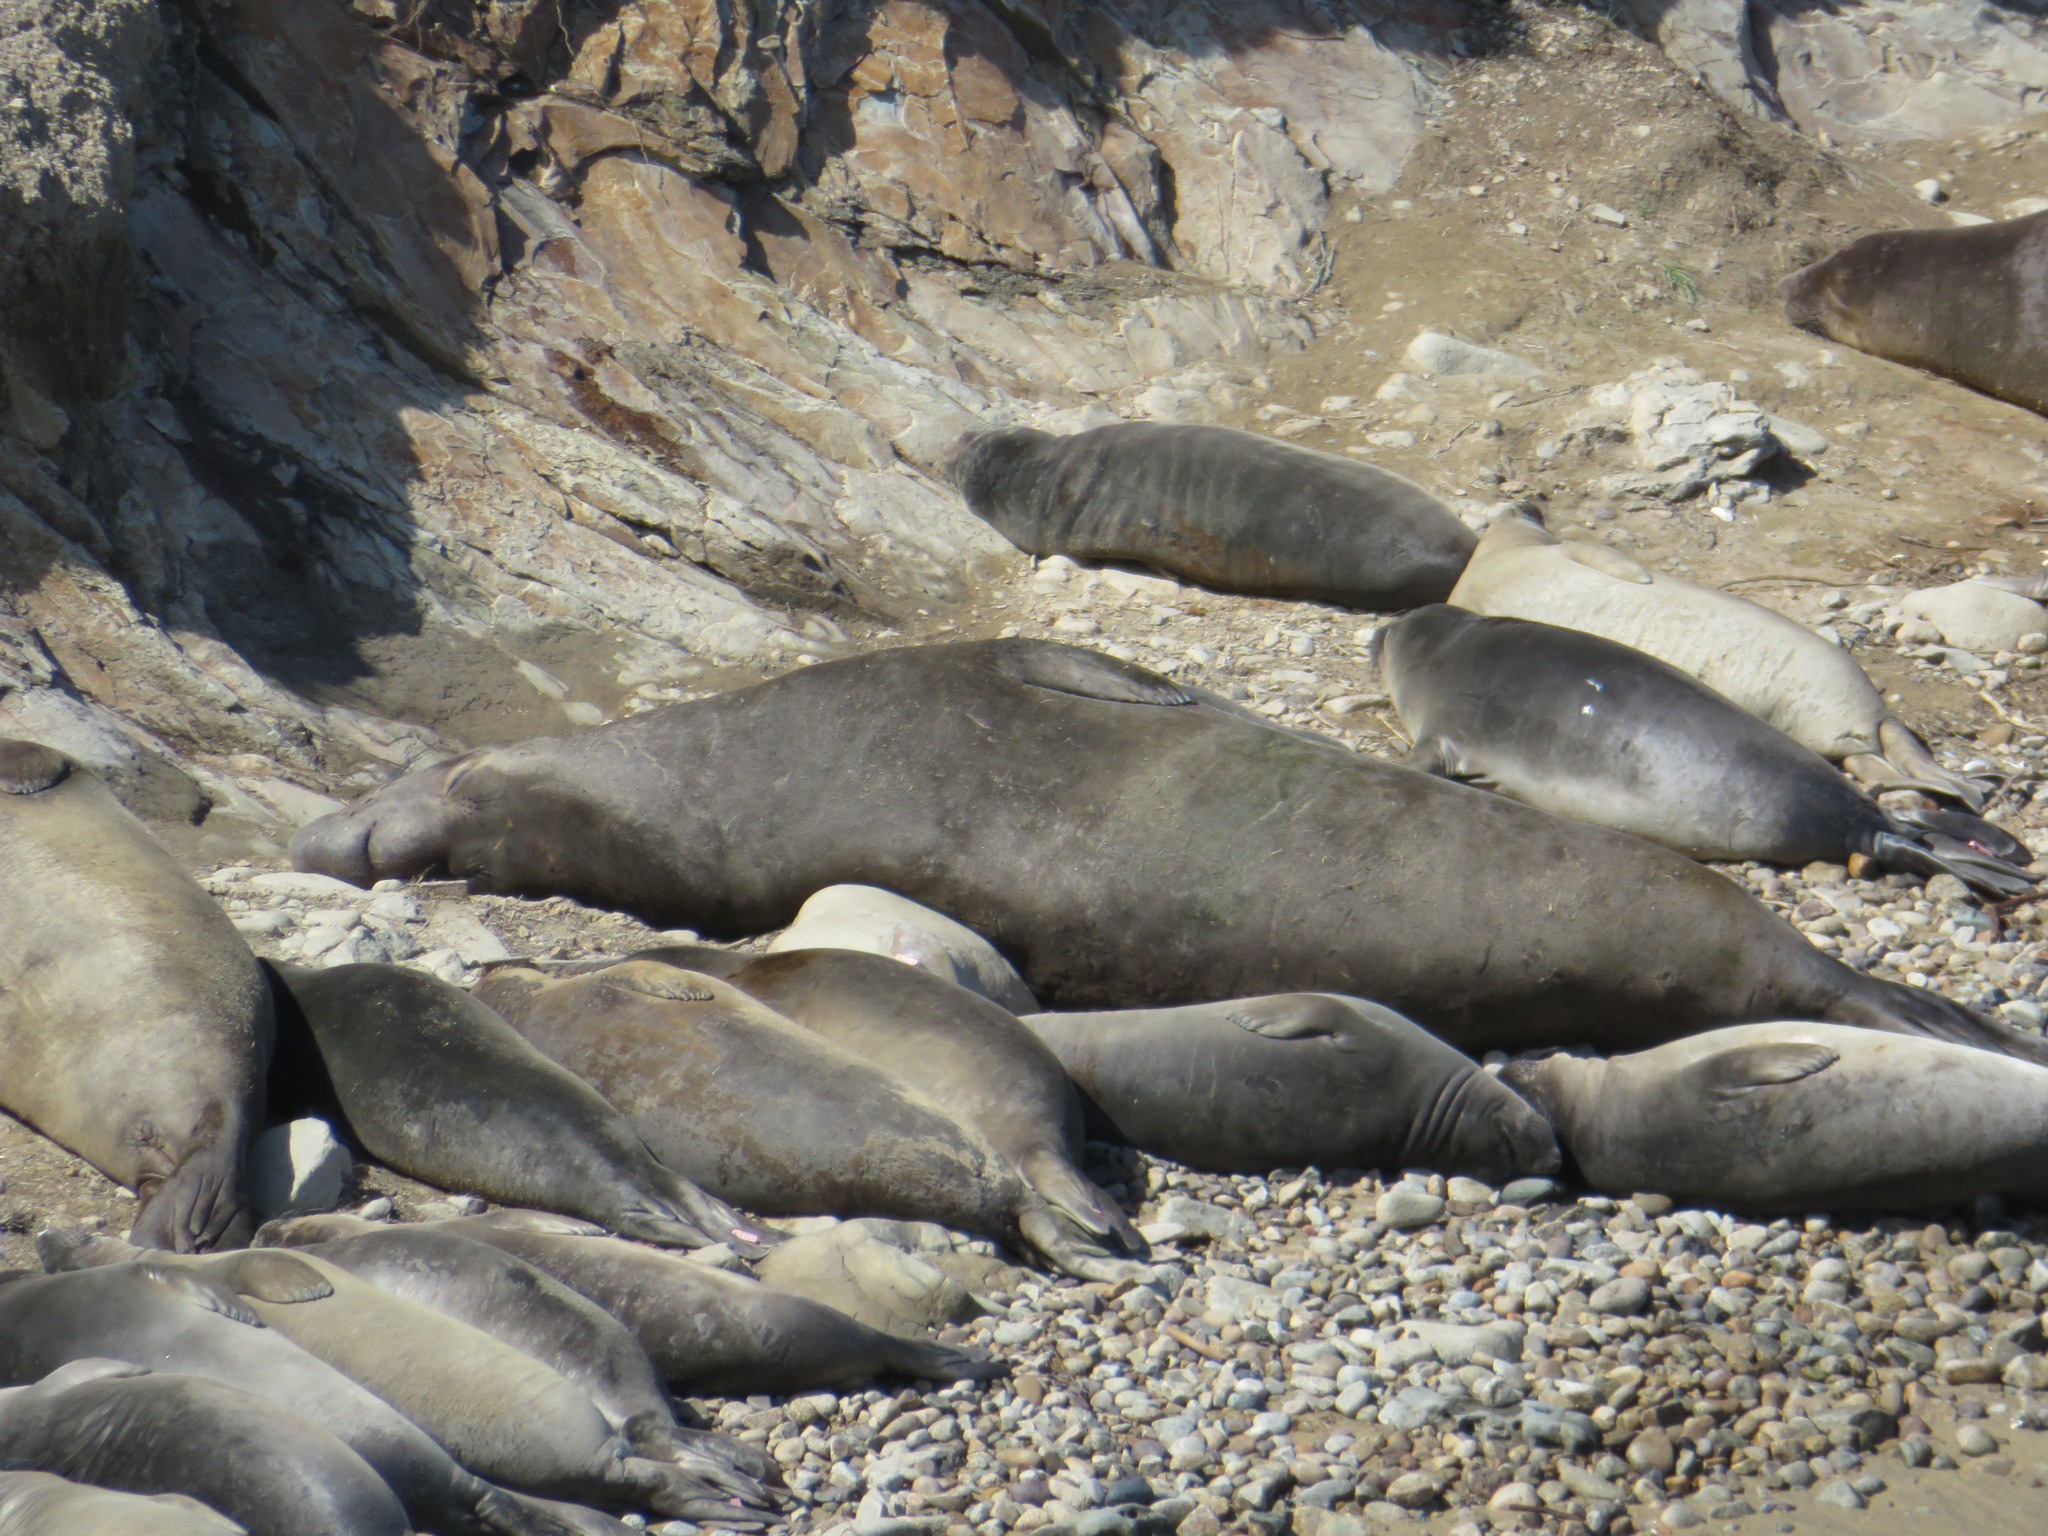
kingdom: Animalia
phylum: Chordata
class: Mammalia
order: Carnivora
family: Phocidae
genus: Mirounga
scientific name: Mirounga angustirostris
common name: Northern elephant seal
